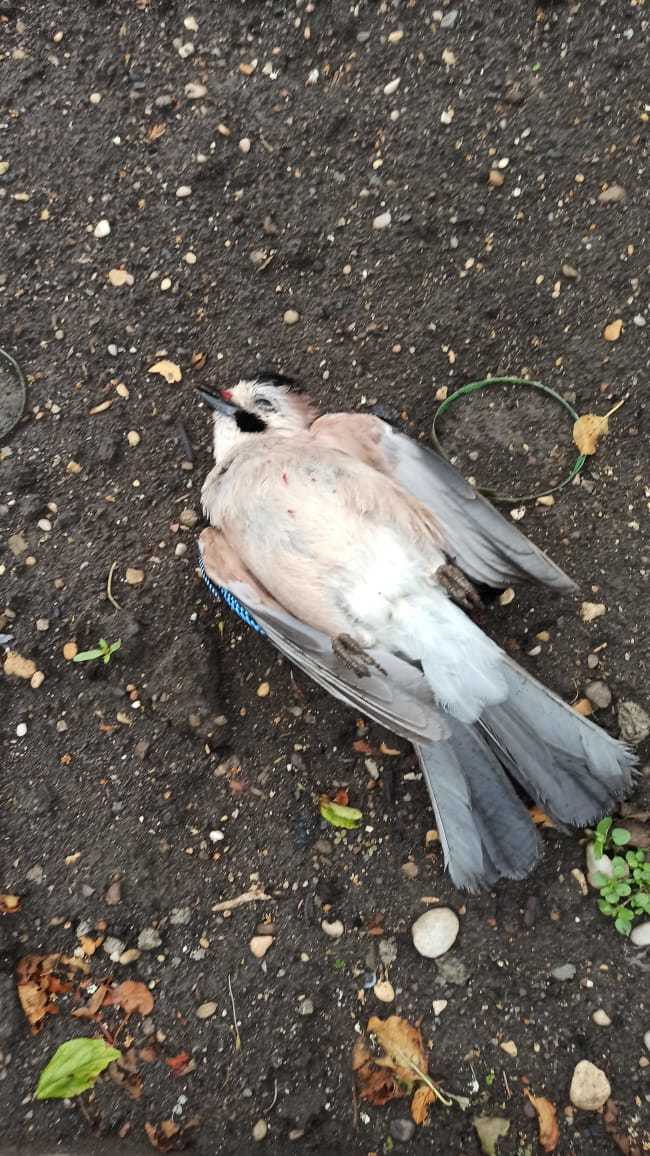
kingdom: Animalia
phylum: Chordata
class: Aves
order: Passeriformes
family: Corvidae
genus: Garrulus
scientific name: Garrulus glandarius
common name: Eurasian jay
